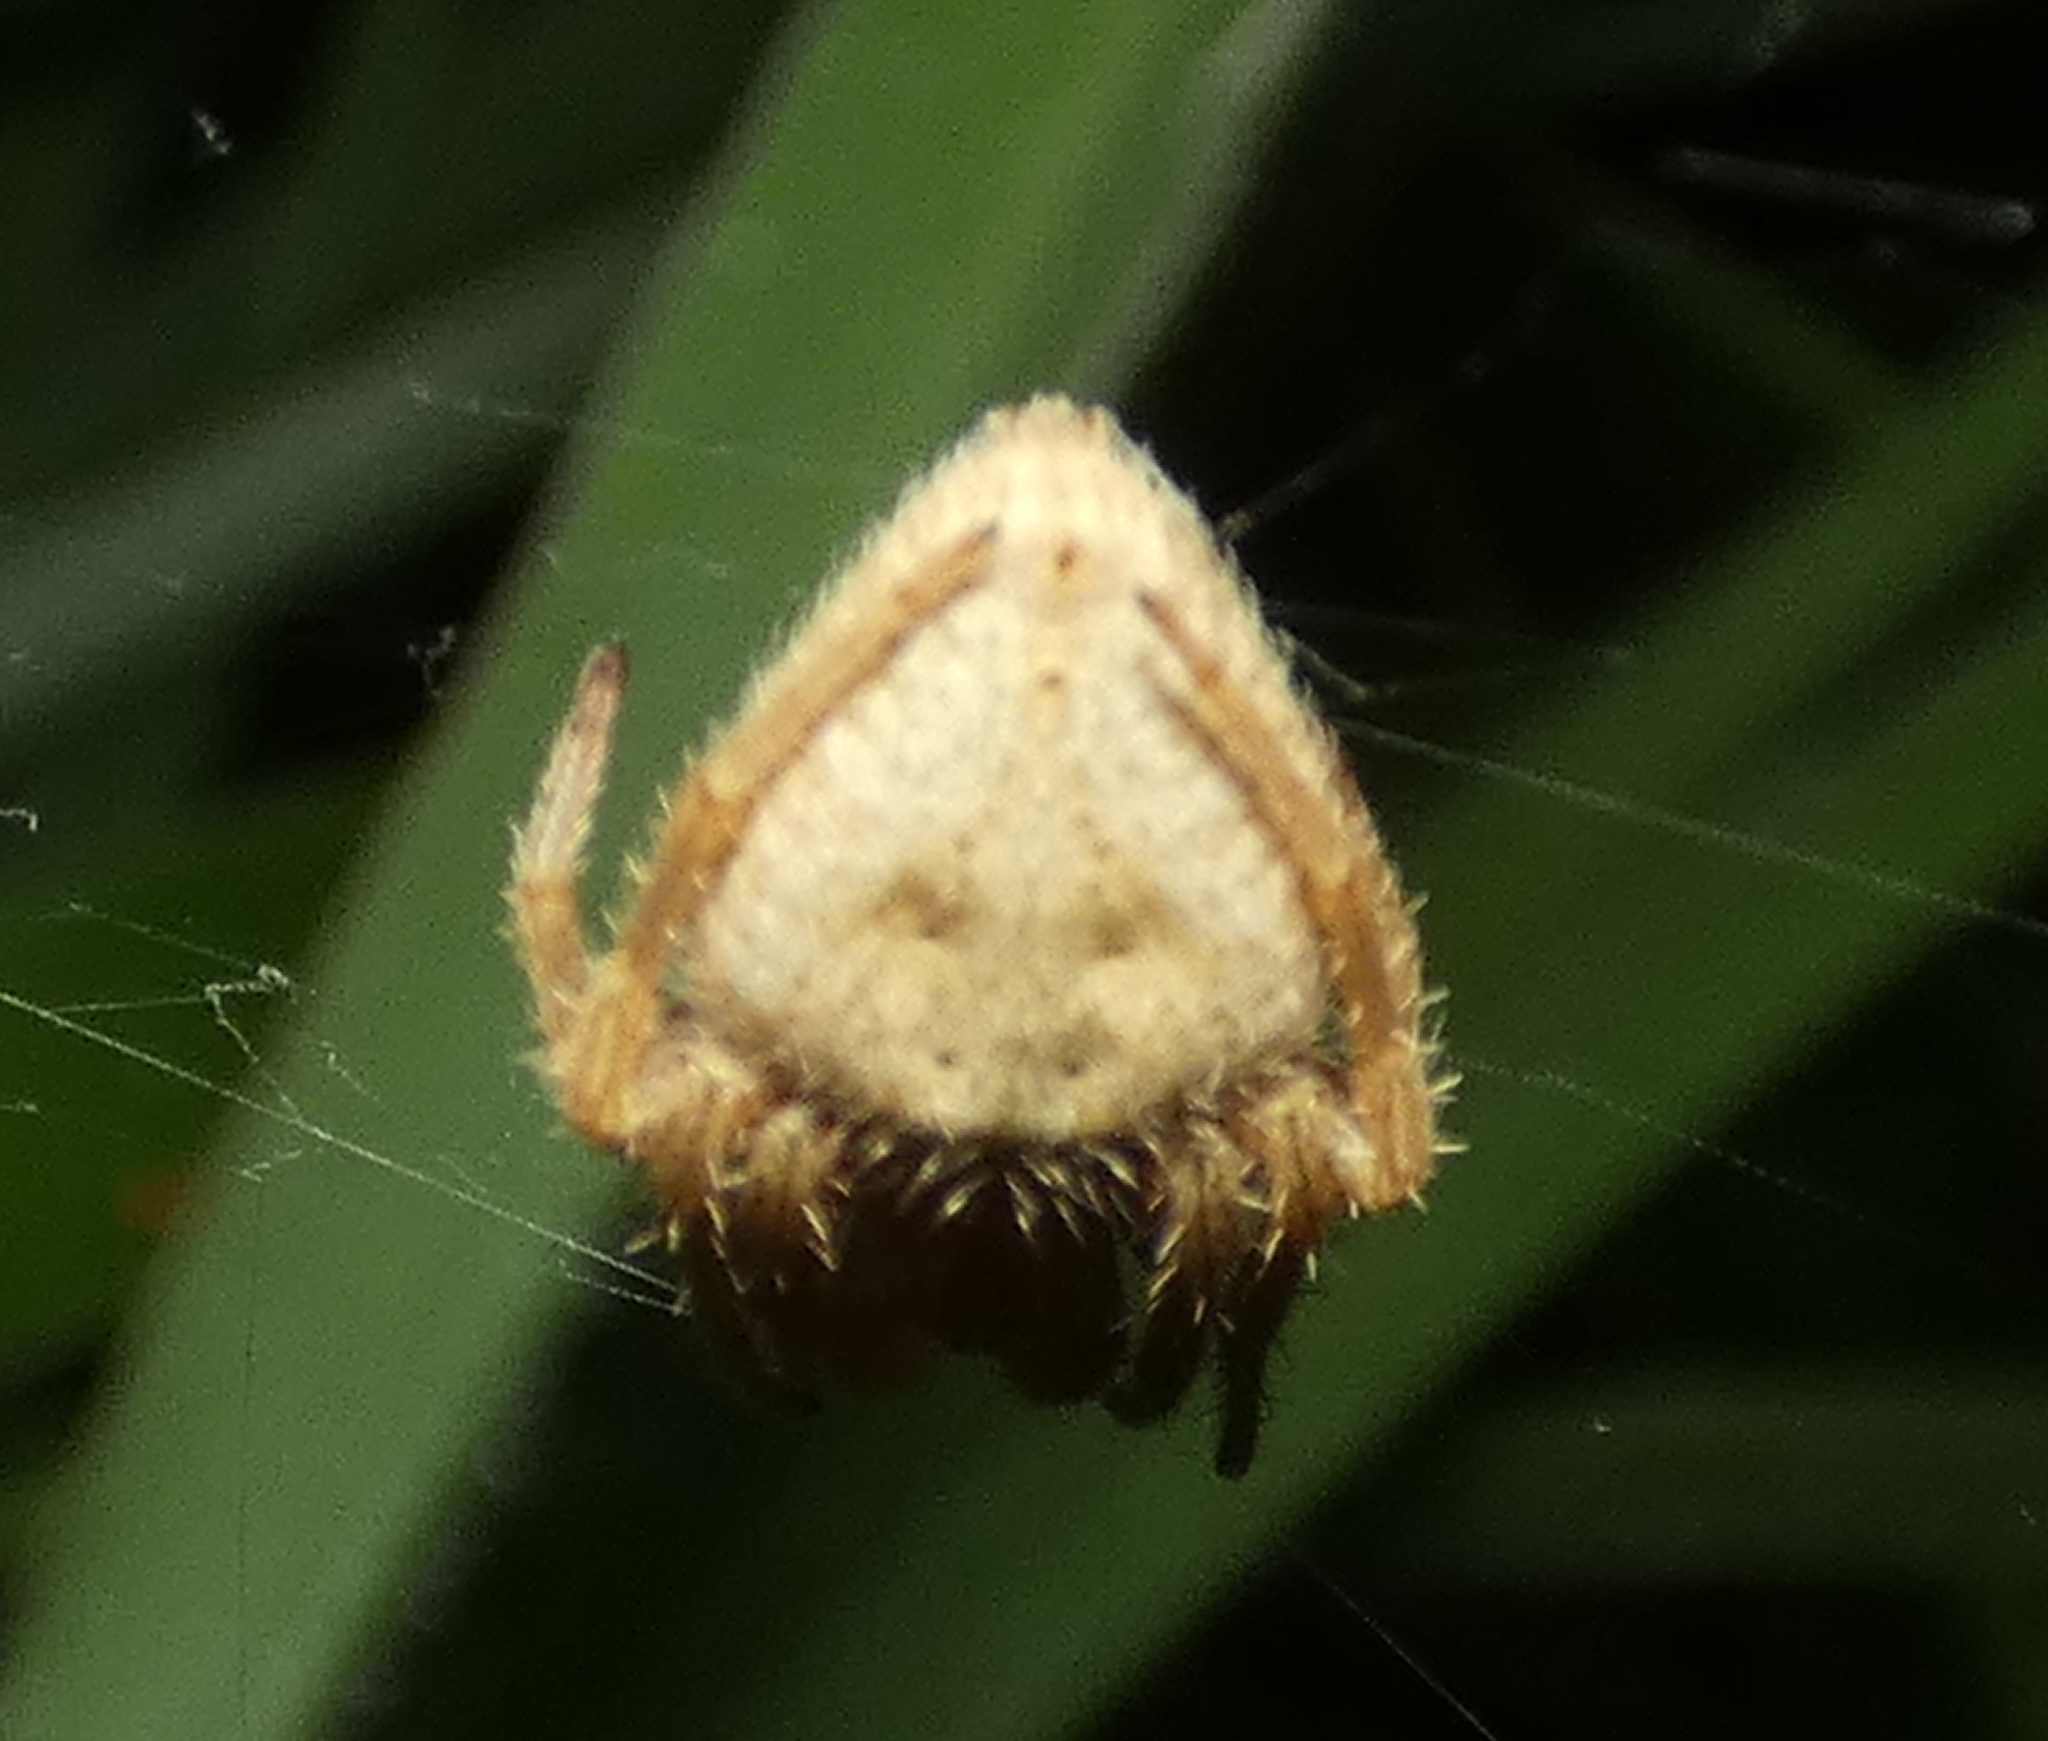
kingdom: Animalia
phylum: Arthropoda
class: Arachnida
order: Araneae
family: Araneidae
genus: Eriophora
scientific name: Eriophora edax
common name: Orb weavers
